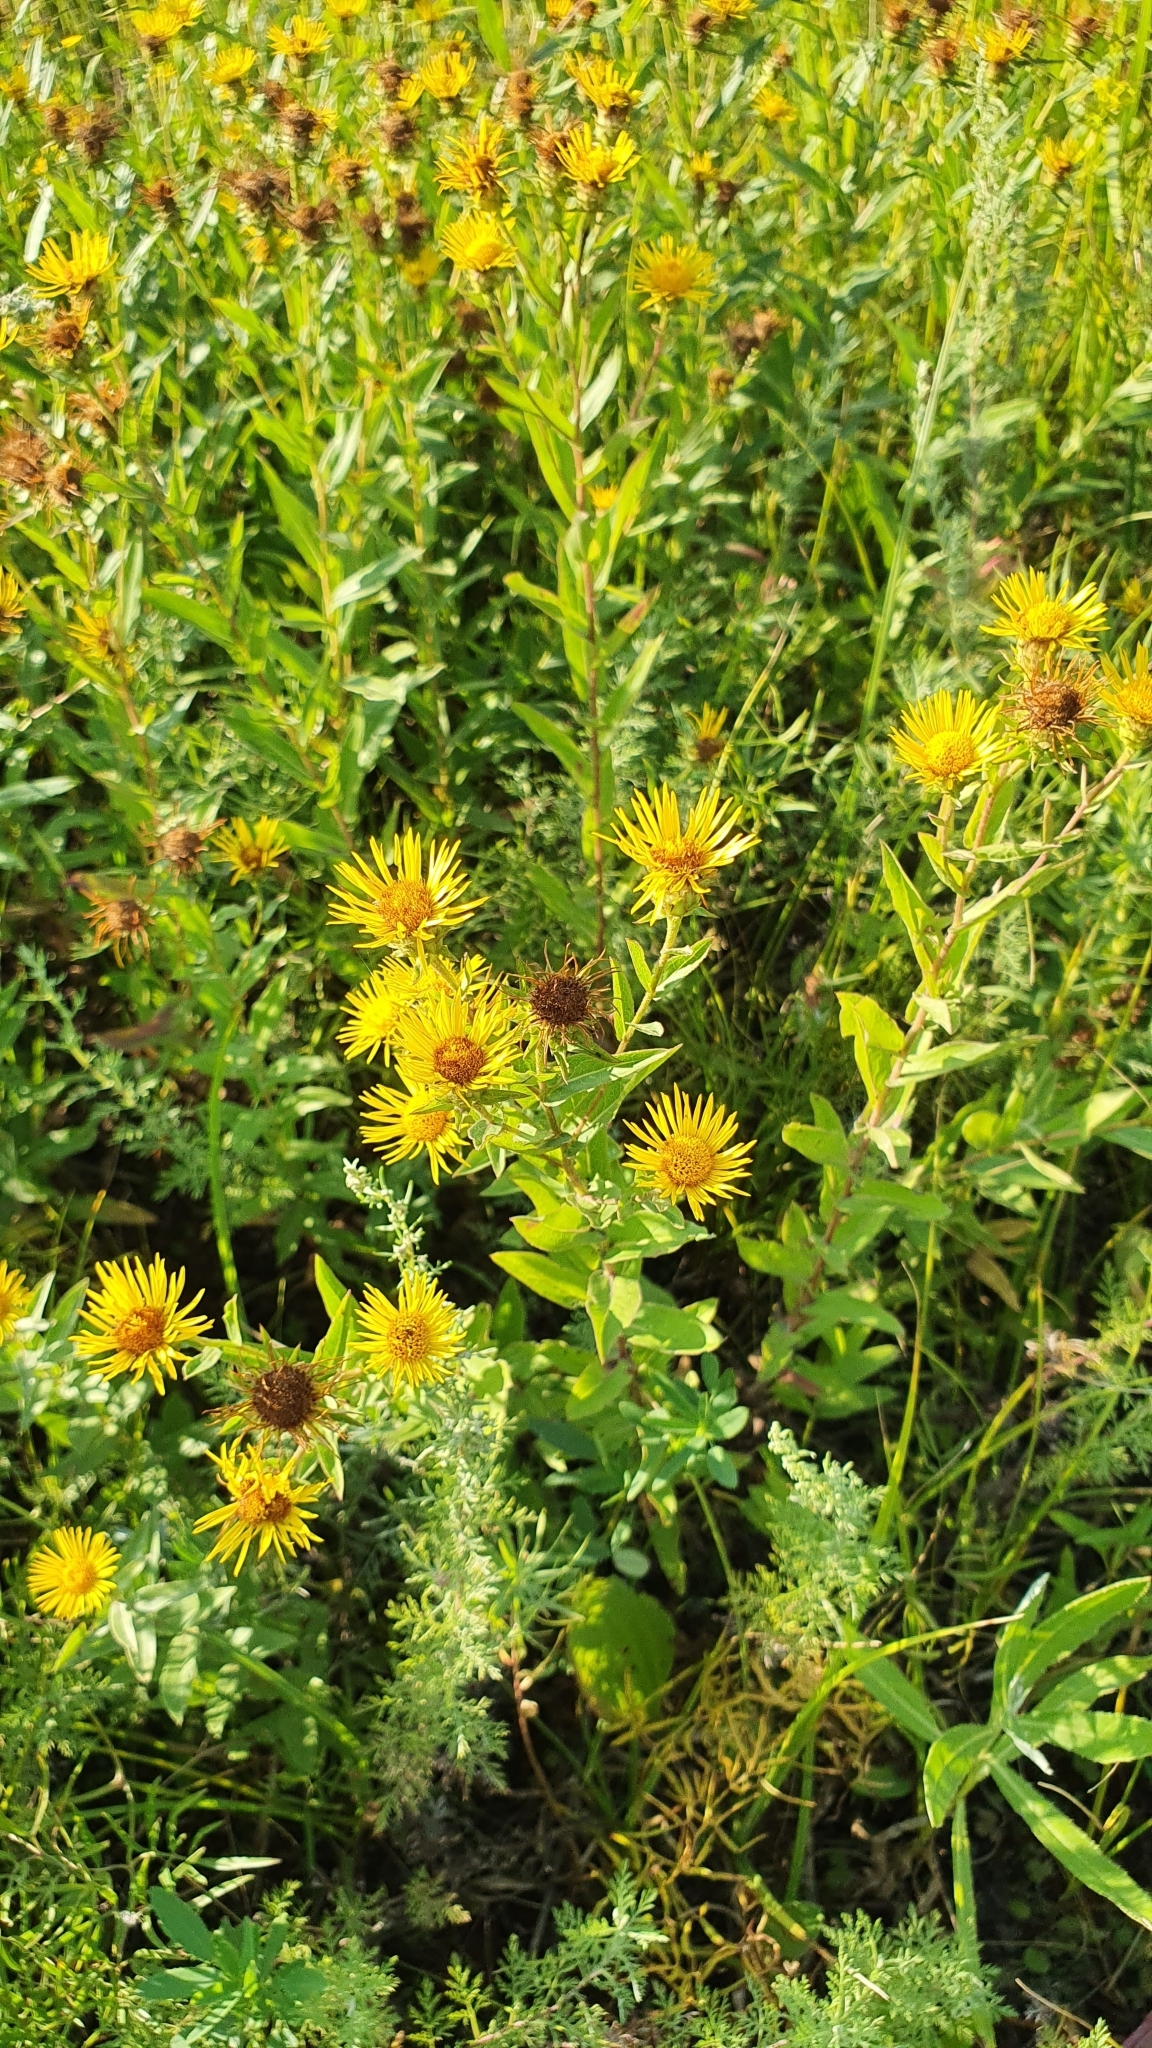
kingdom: Plantae
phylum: Tracheophyta
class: Magnoliopsida
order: Asterales
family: Asteraceae
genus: Pentanema
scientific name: Pentanema salicinum
